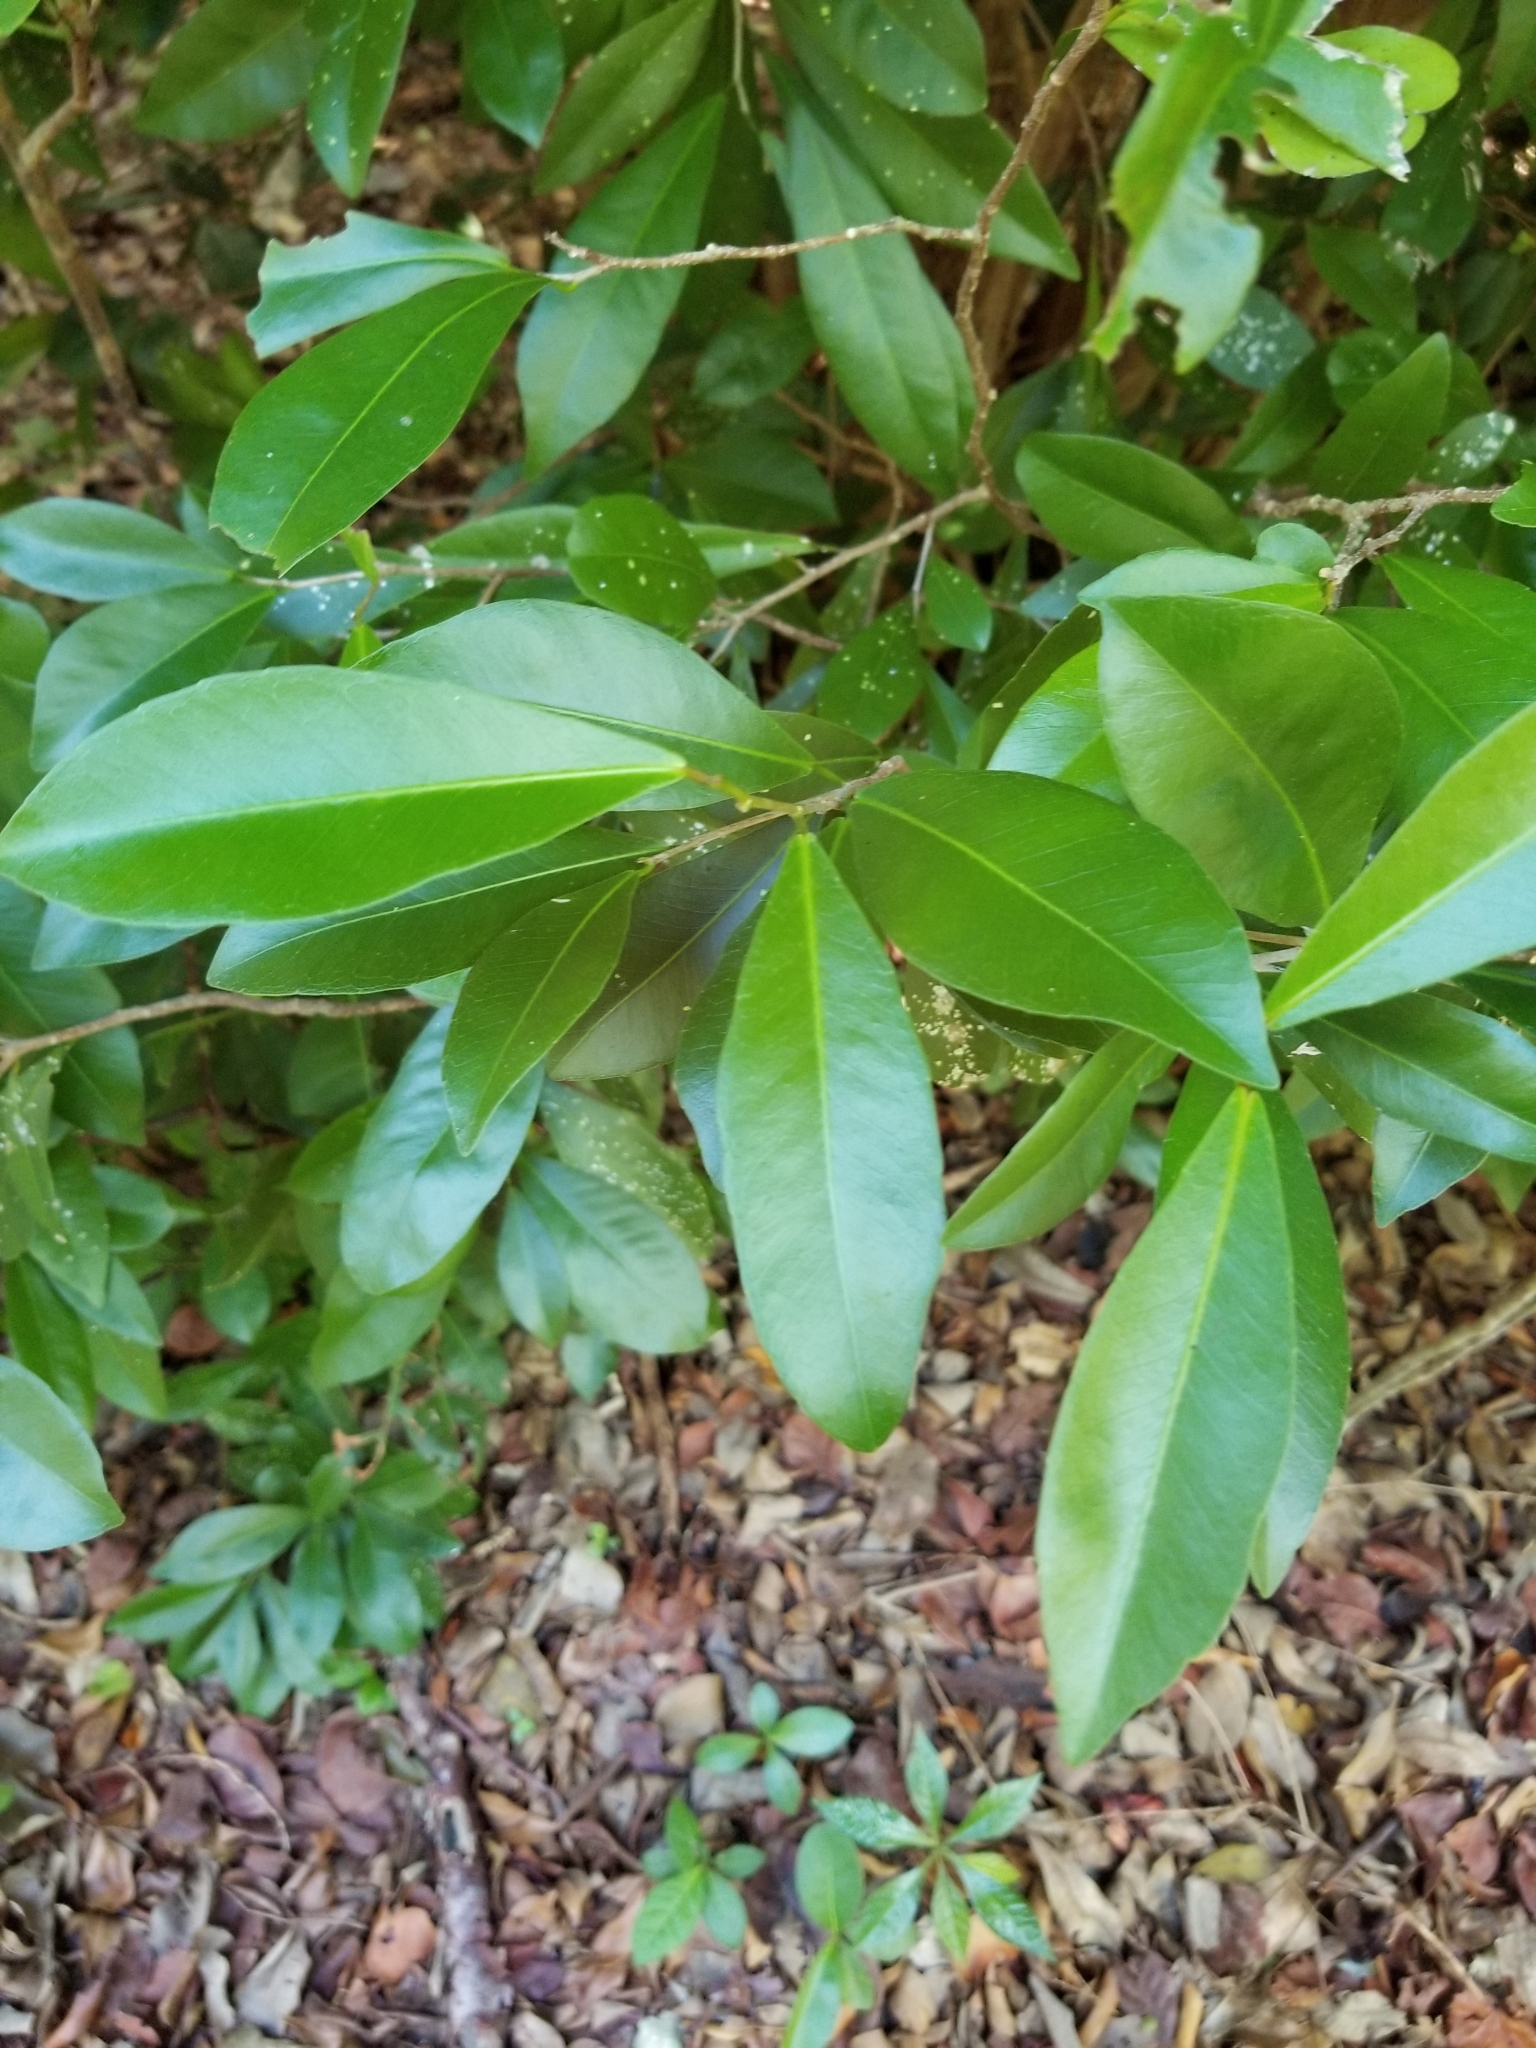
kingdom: Plantae
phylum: Tracheophyta
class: Magnoliopsida
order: Malpighiales
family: Euphorbiaceae
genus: Gymnanthes
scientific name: Gymnanthes lucida
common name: Oysterwood
